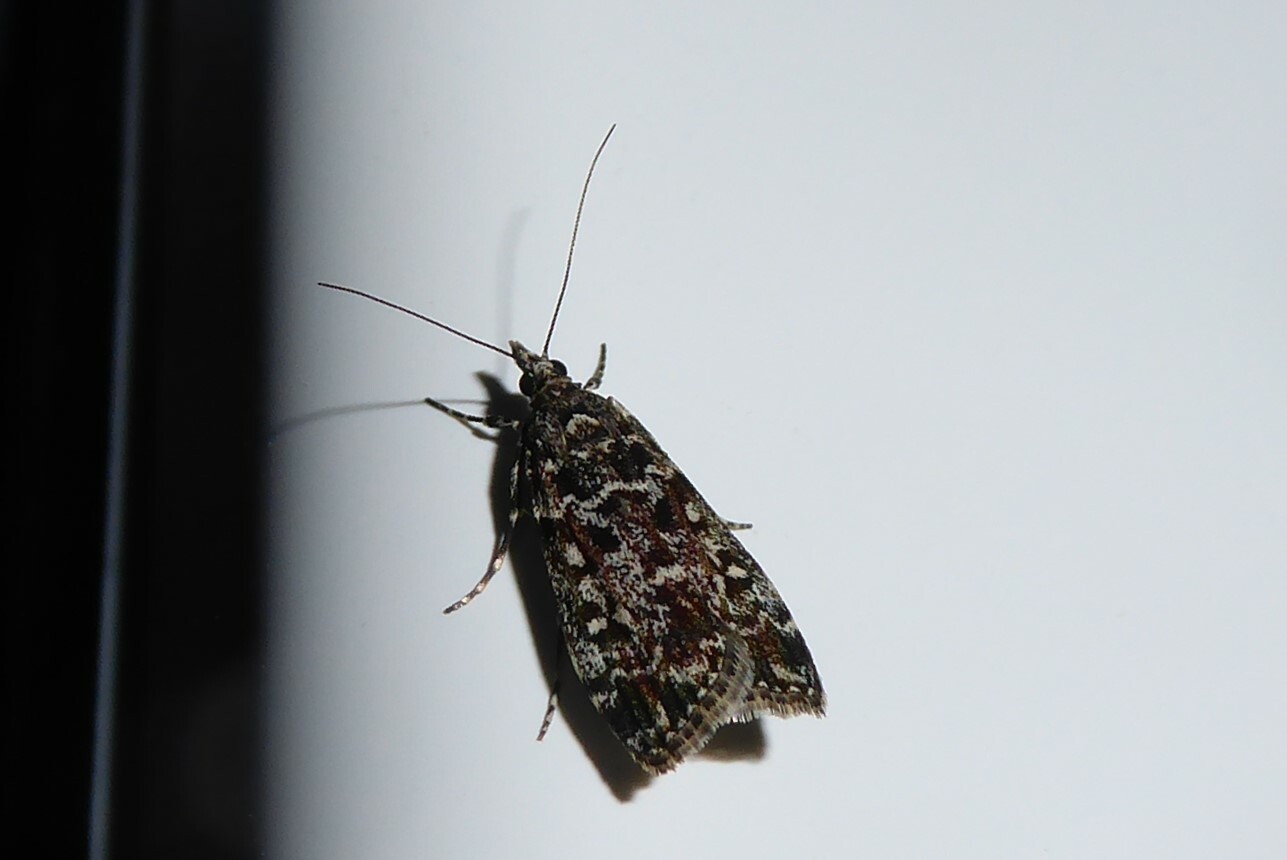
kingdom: Animalia
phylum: Arthropoda
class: Insecta
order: Lepidoptera
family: Crambidae
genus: Eudonia
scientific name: Eudonia philerga
